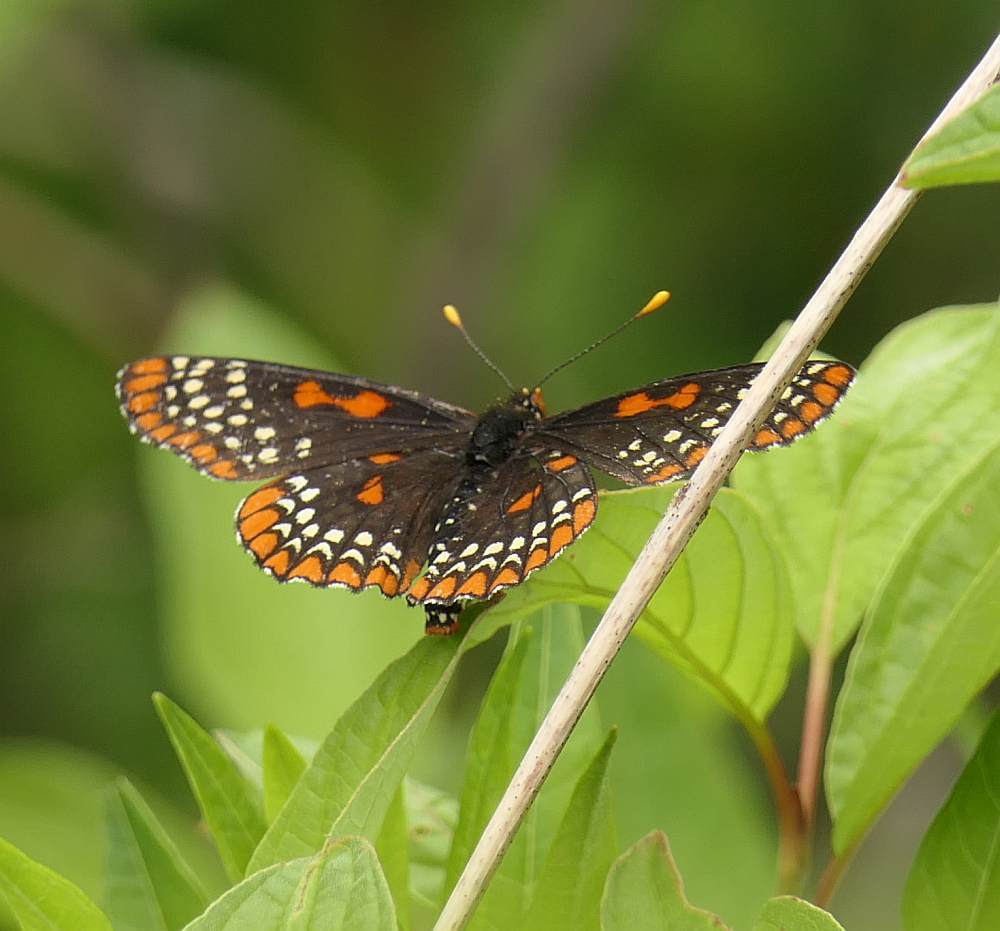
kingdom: Animalia
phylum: Arthropoda
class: Insecta
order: Lepidoptera
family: Nymphalidae
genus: Euphydryas
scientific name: Euphydryas phaeton
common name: Baltimore checkerspot
